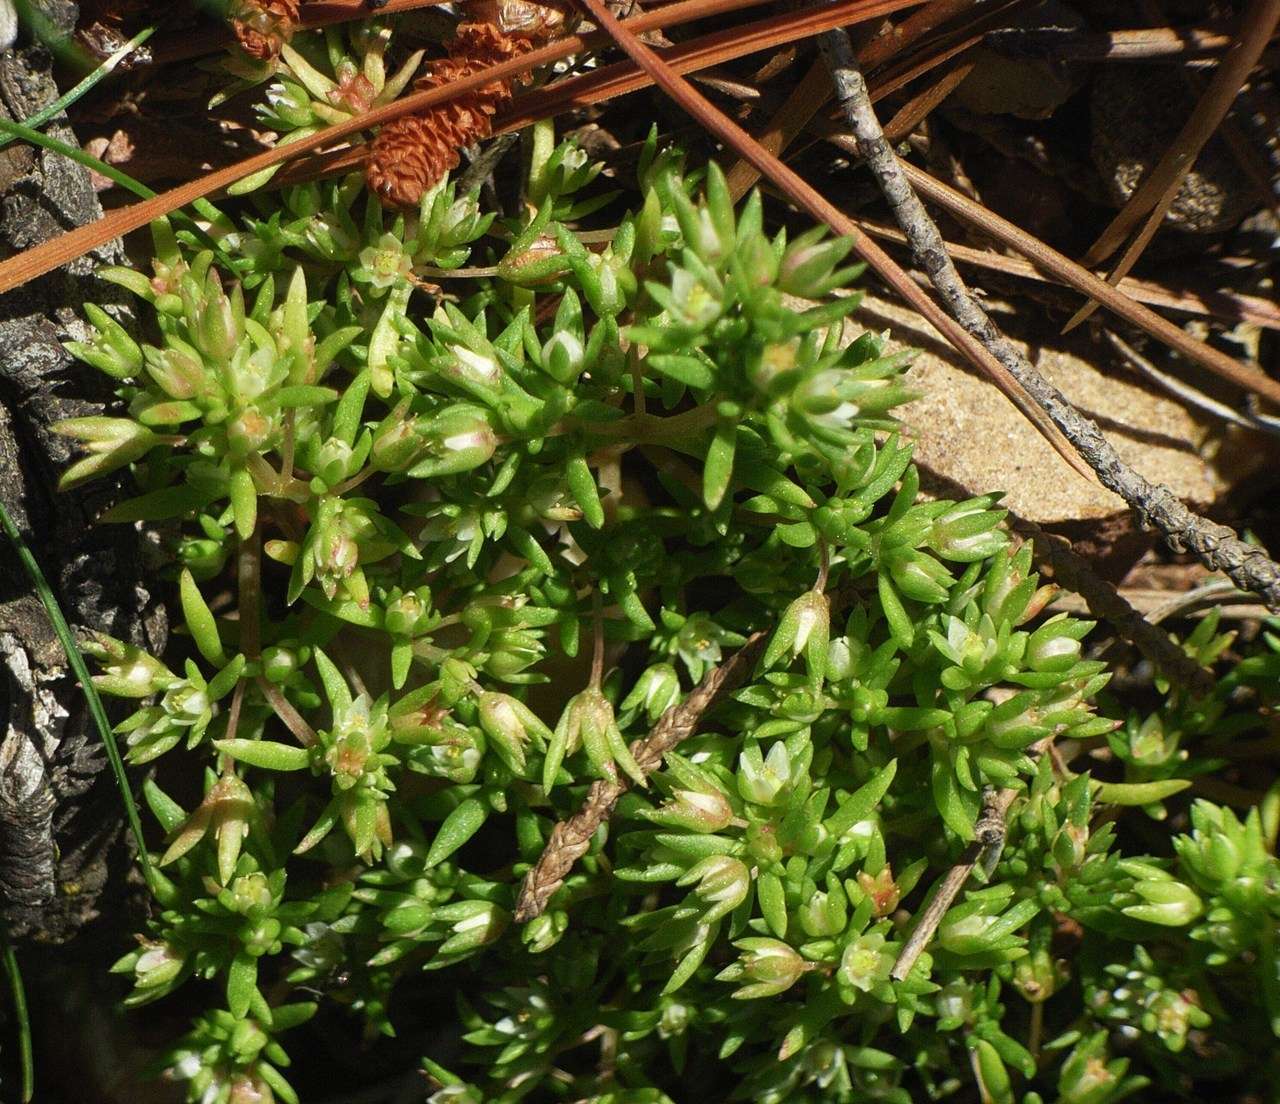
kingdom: Plantae
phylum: Tracheophyta
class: Magnoliopsida
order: Saxifragales
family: Crassulaceae
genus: Crassula
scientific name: Crassula decumbens
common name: Scilly pigmyweed
